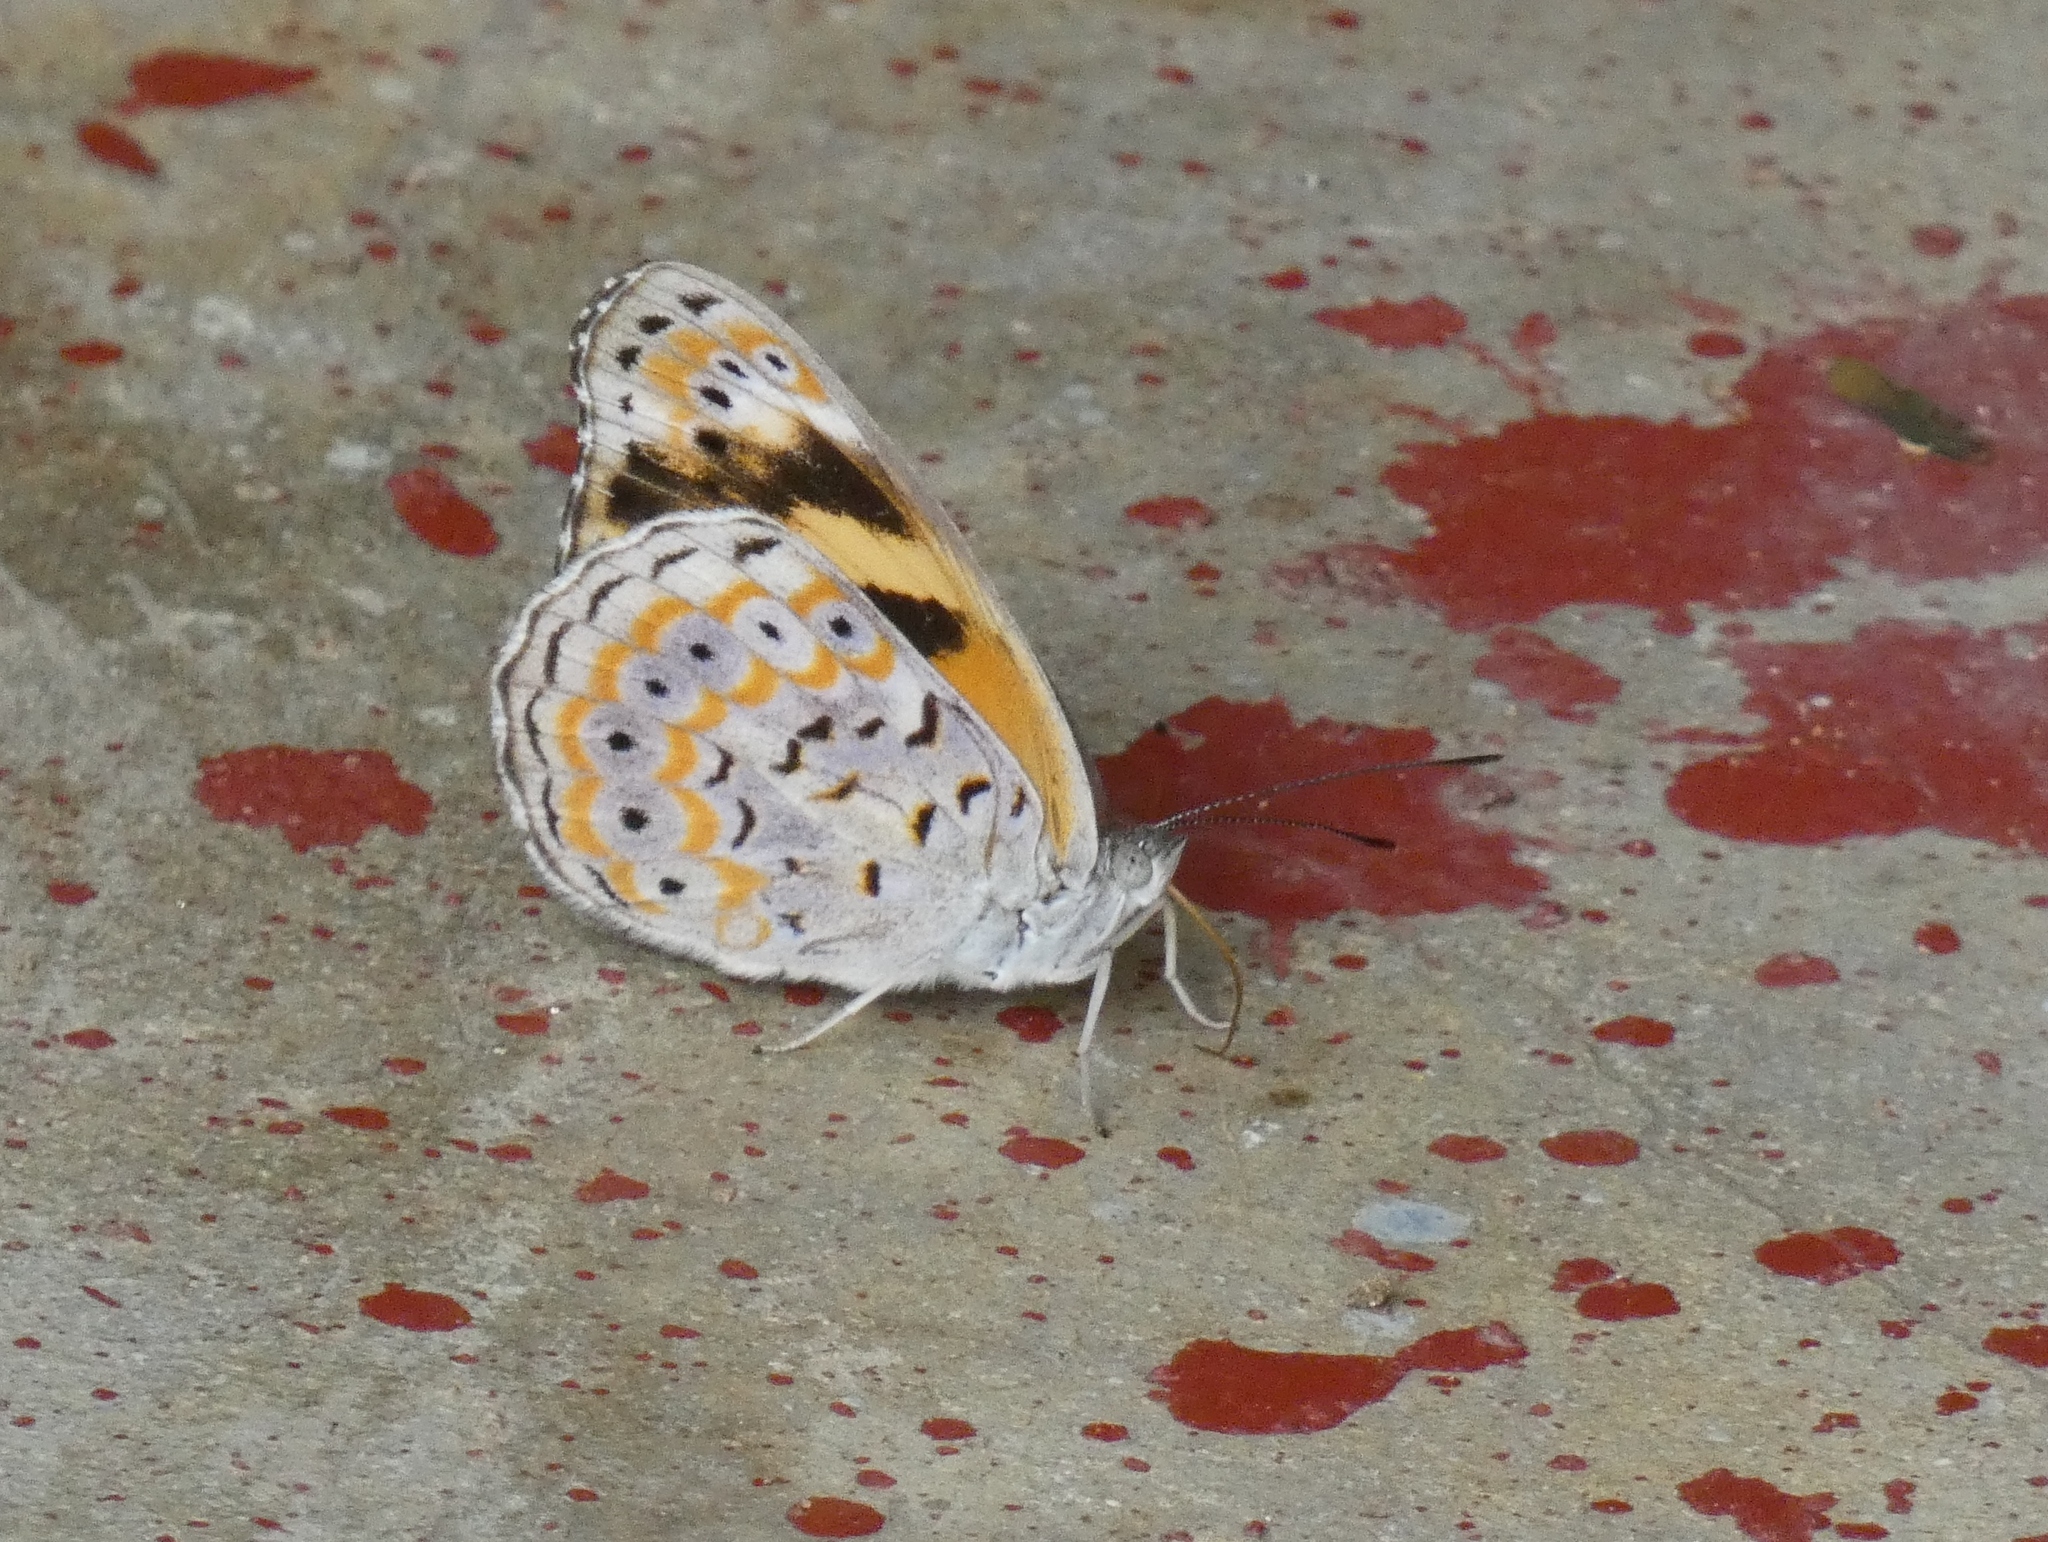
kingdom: Animalia
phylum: Arthropoda
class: Insecta
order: Lepidoptera
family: Nymphalidae
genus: Sevenia
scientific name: Sevenia
